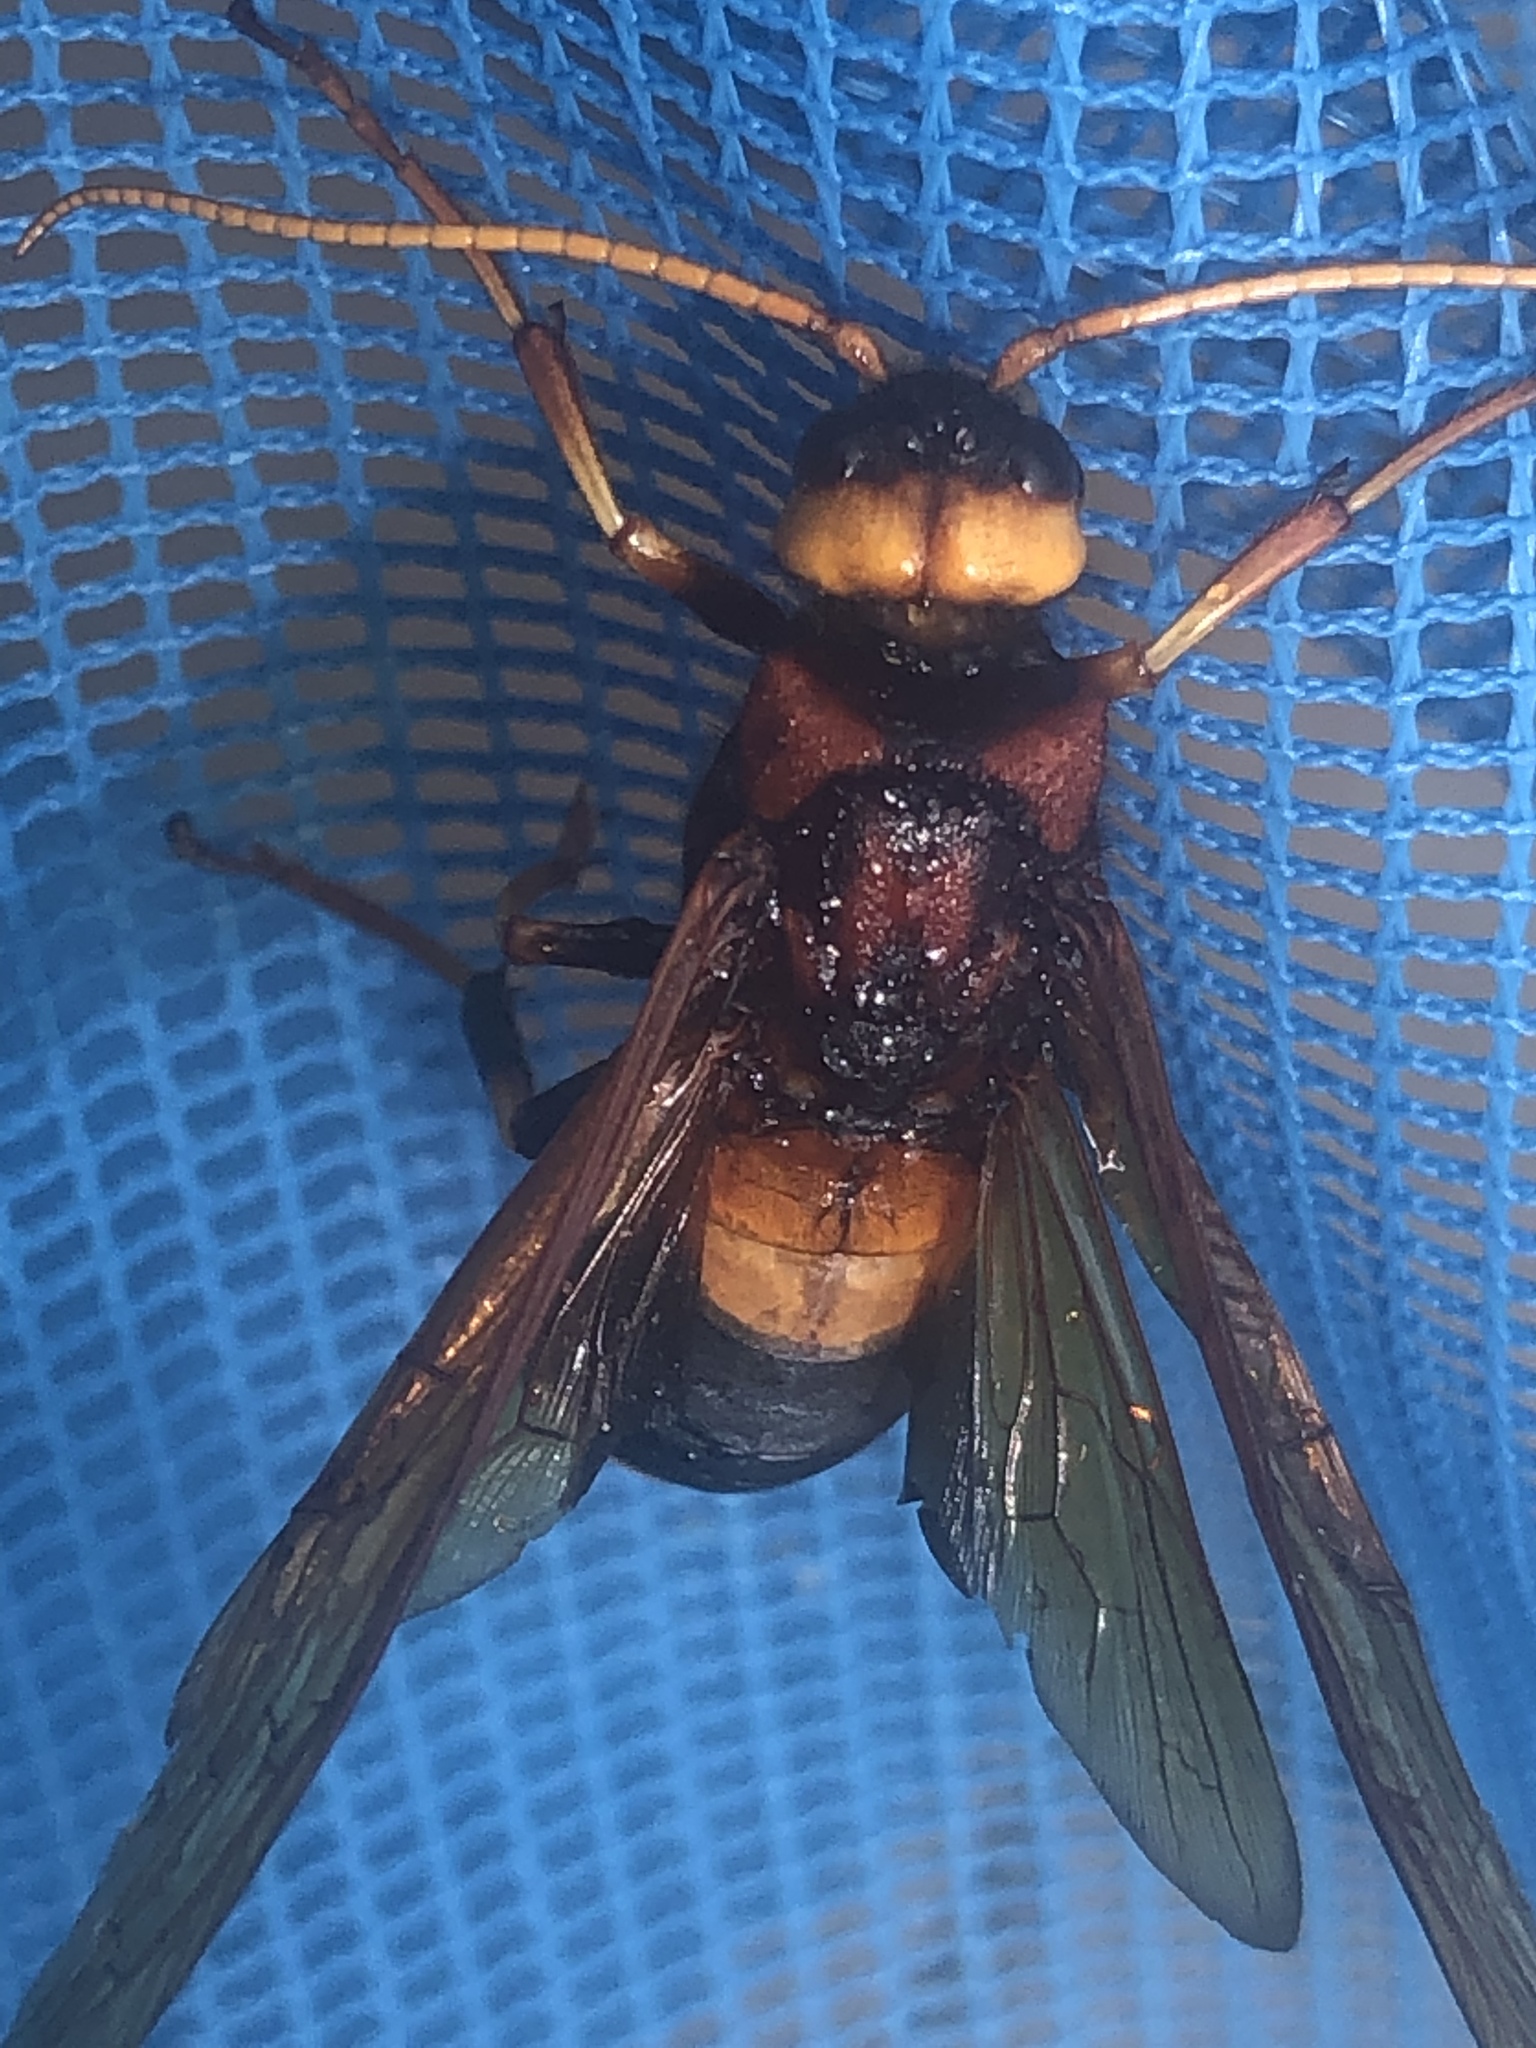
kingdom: Animalia
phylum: Arthropoda
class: Insecta
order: Hymenoptera
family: Siricidae
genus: Urocerus
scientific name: Urocerus sah
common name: Horntail wasp
